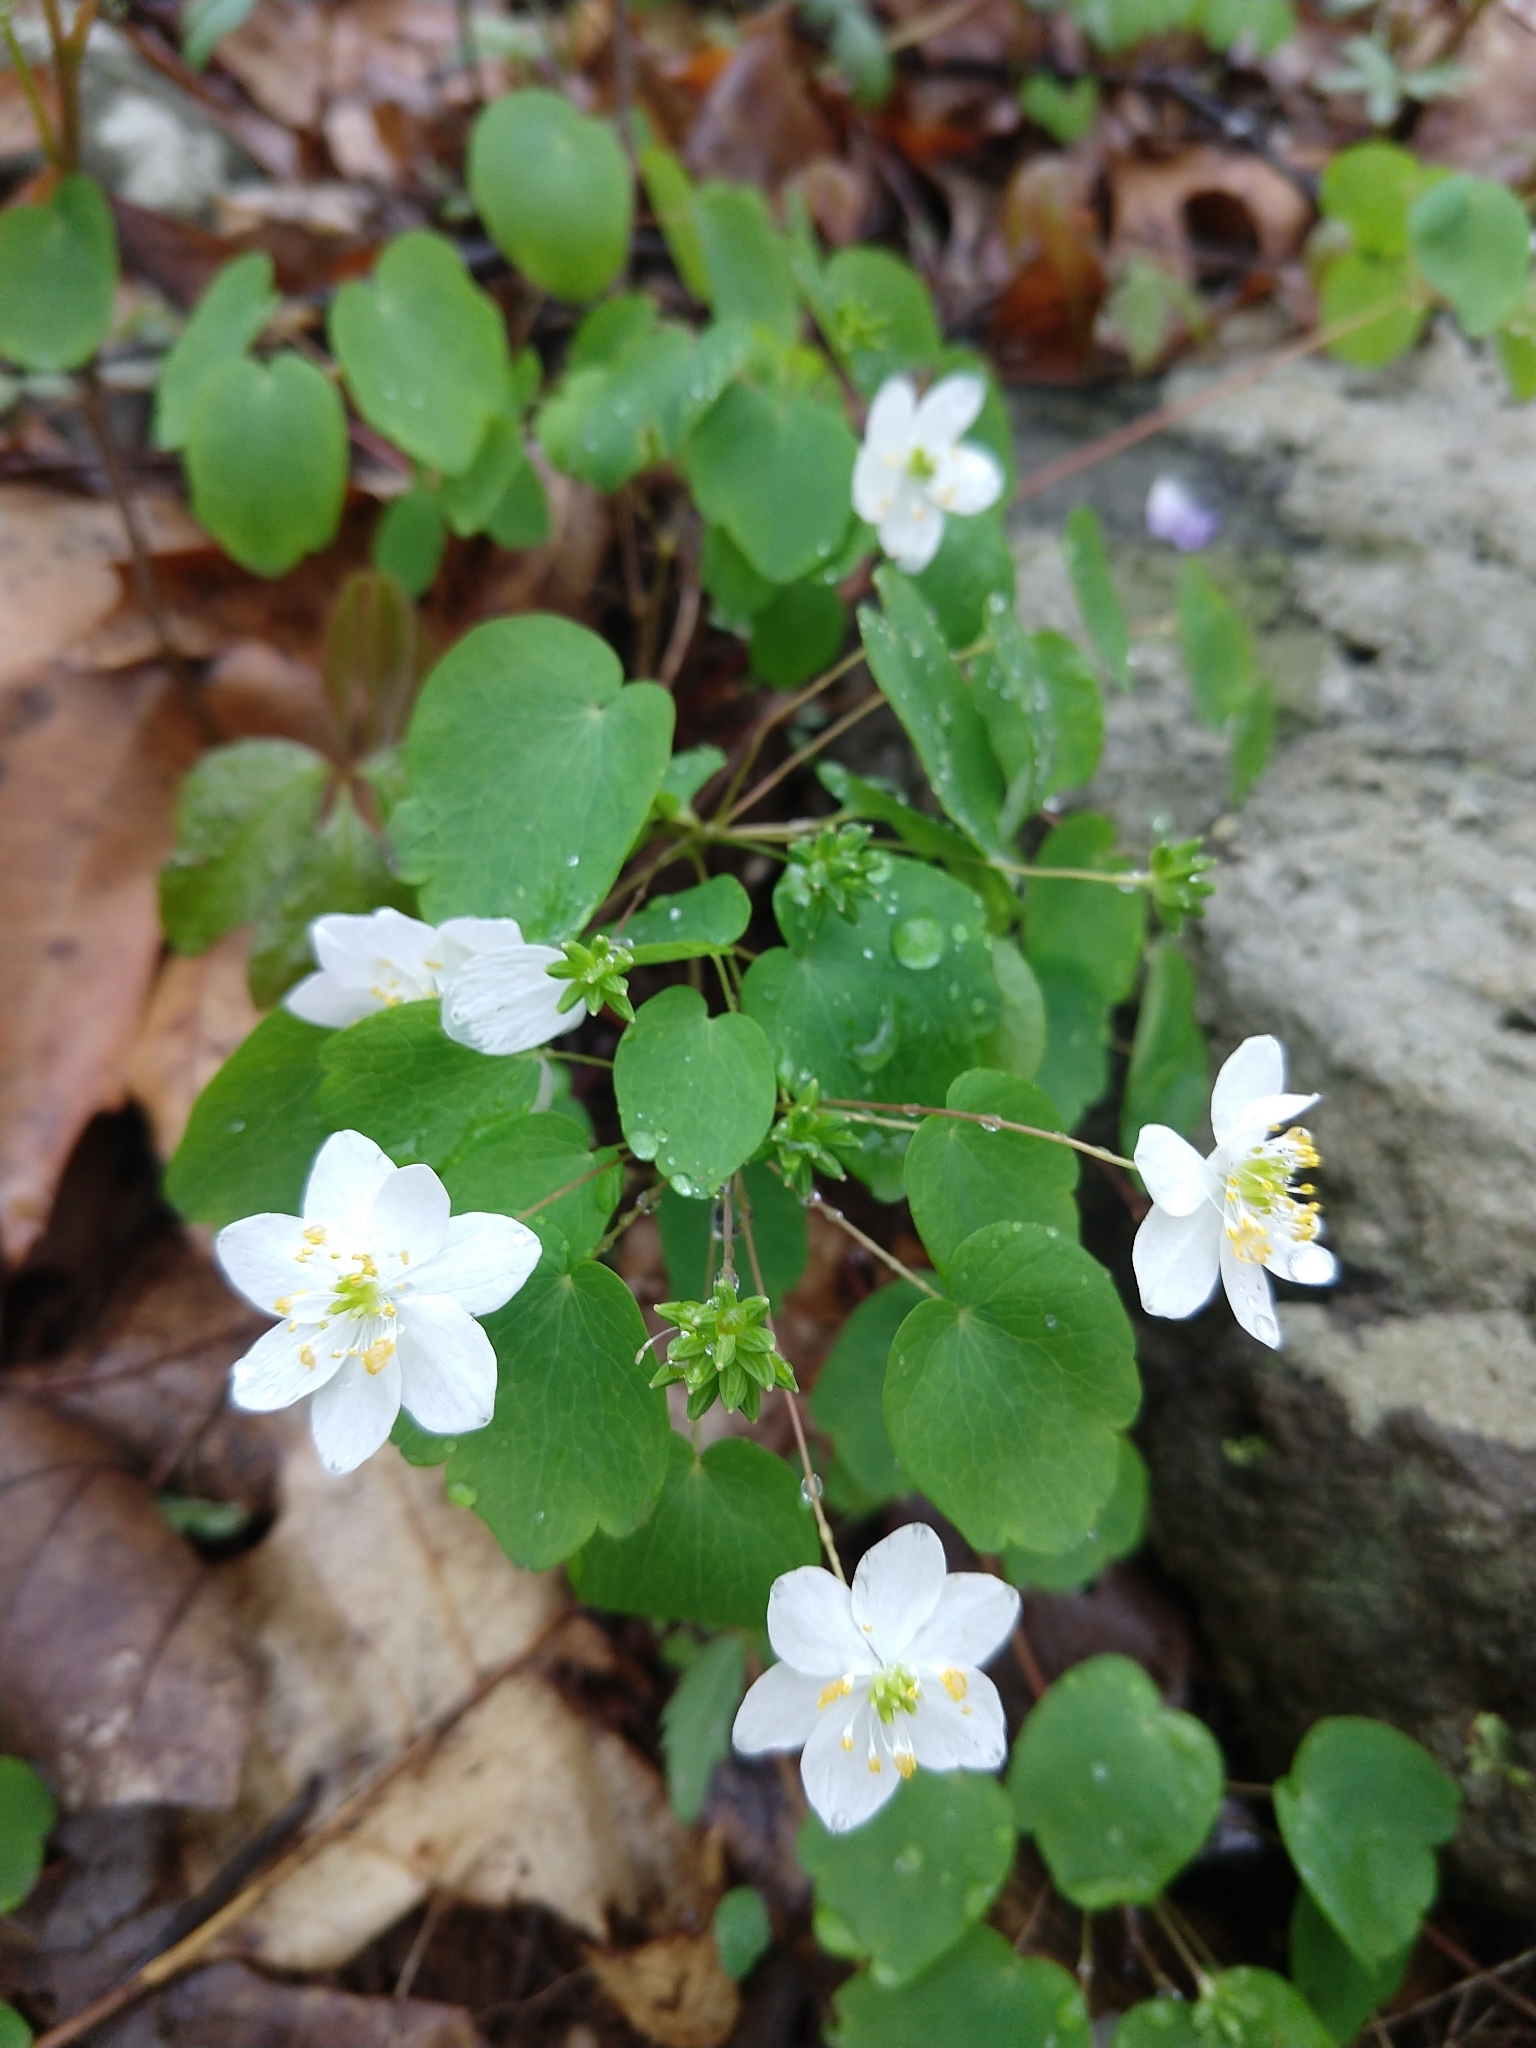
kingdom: Plantae
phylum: Tracheophyta
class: Magnoliopsida
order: Ranunculales
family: Ranunculaceae
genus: Thalictrum
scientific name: Thalictrum thalictroides
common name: Rue-anemone
